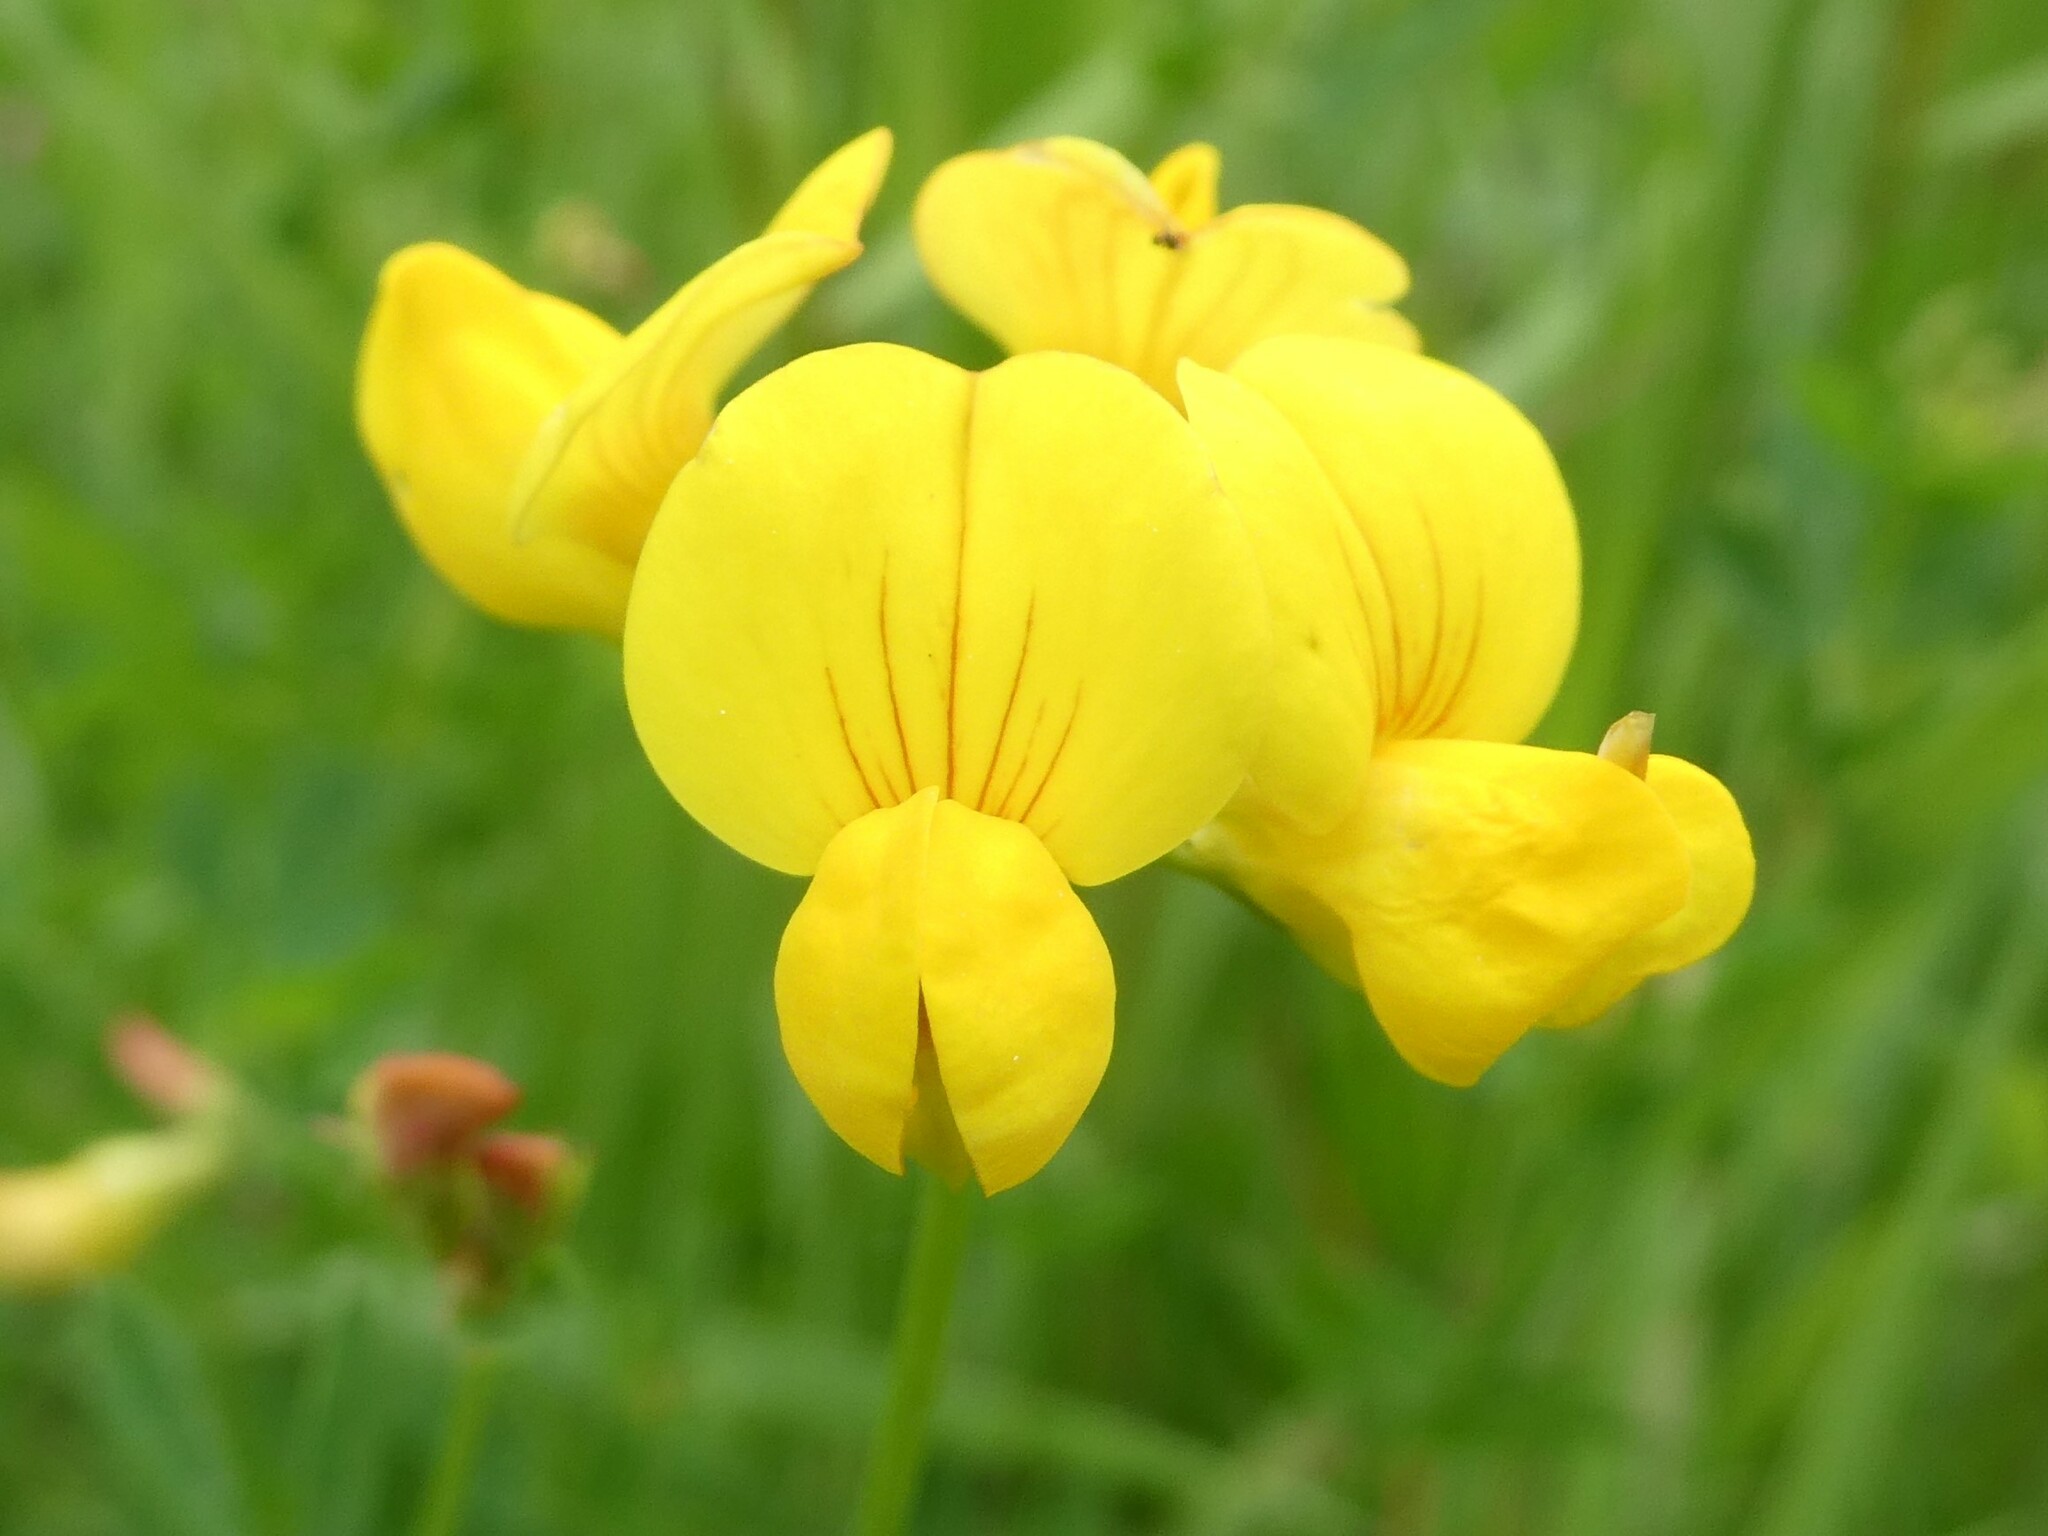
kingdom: Plantae
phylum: Tracheophyta
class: Magnoliopsida
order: Fabales
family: Fabaceae
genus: Lotus
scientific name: Lotus corniculatus
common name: Common bird's-foot-trefoil
